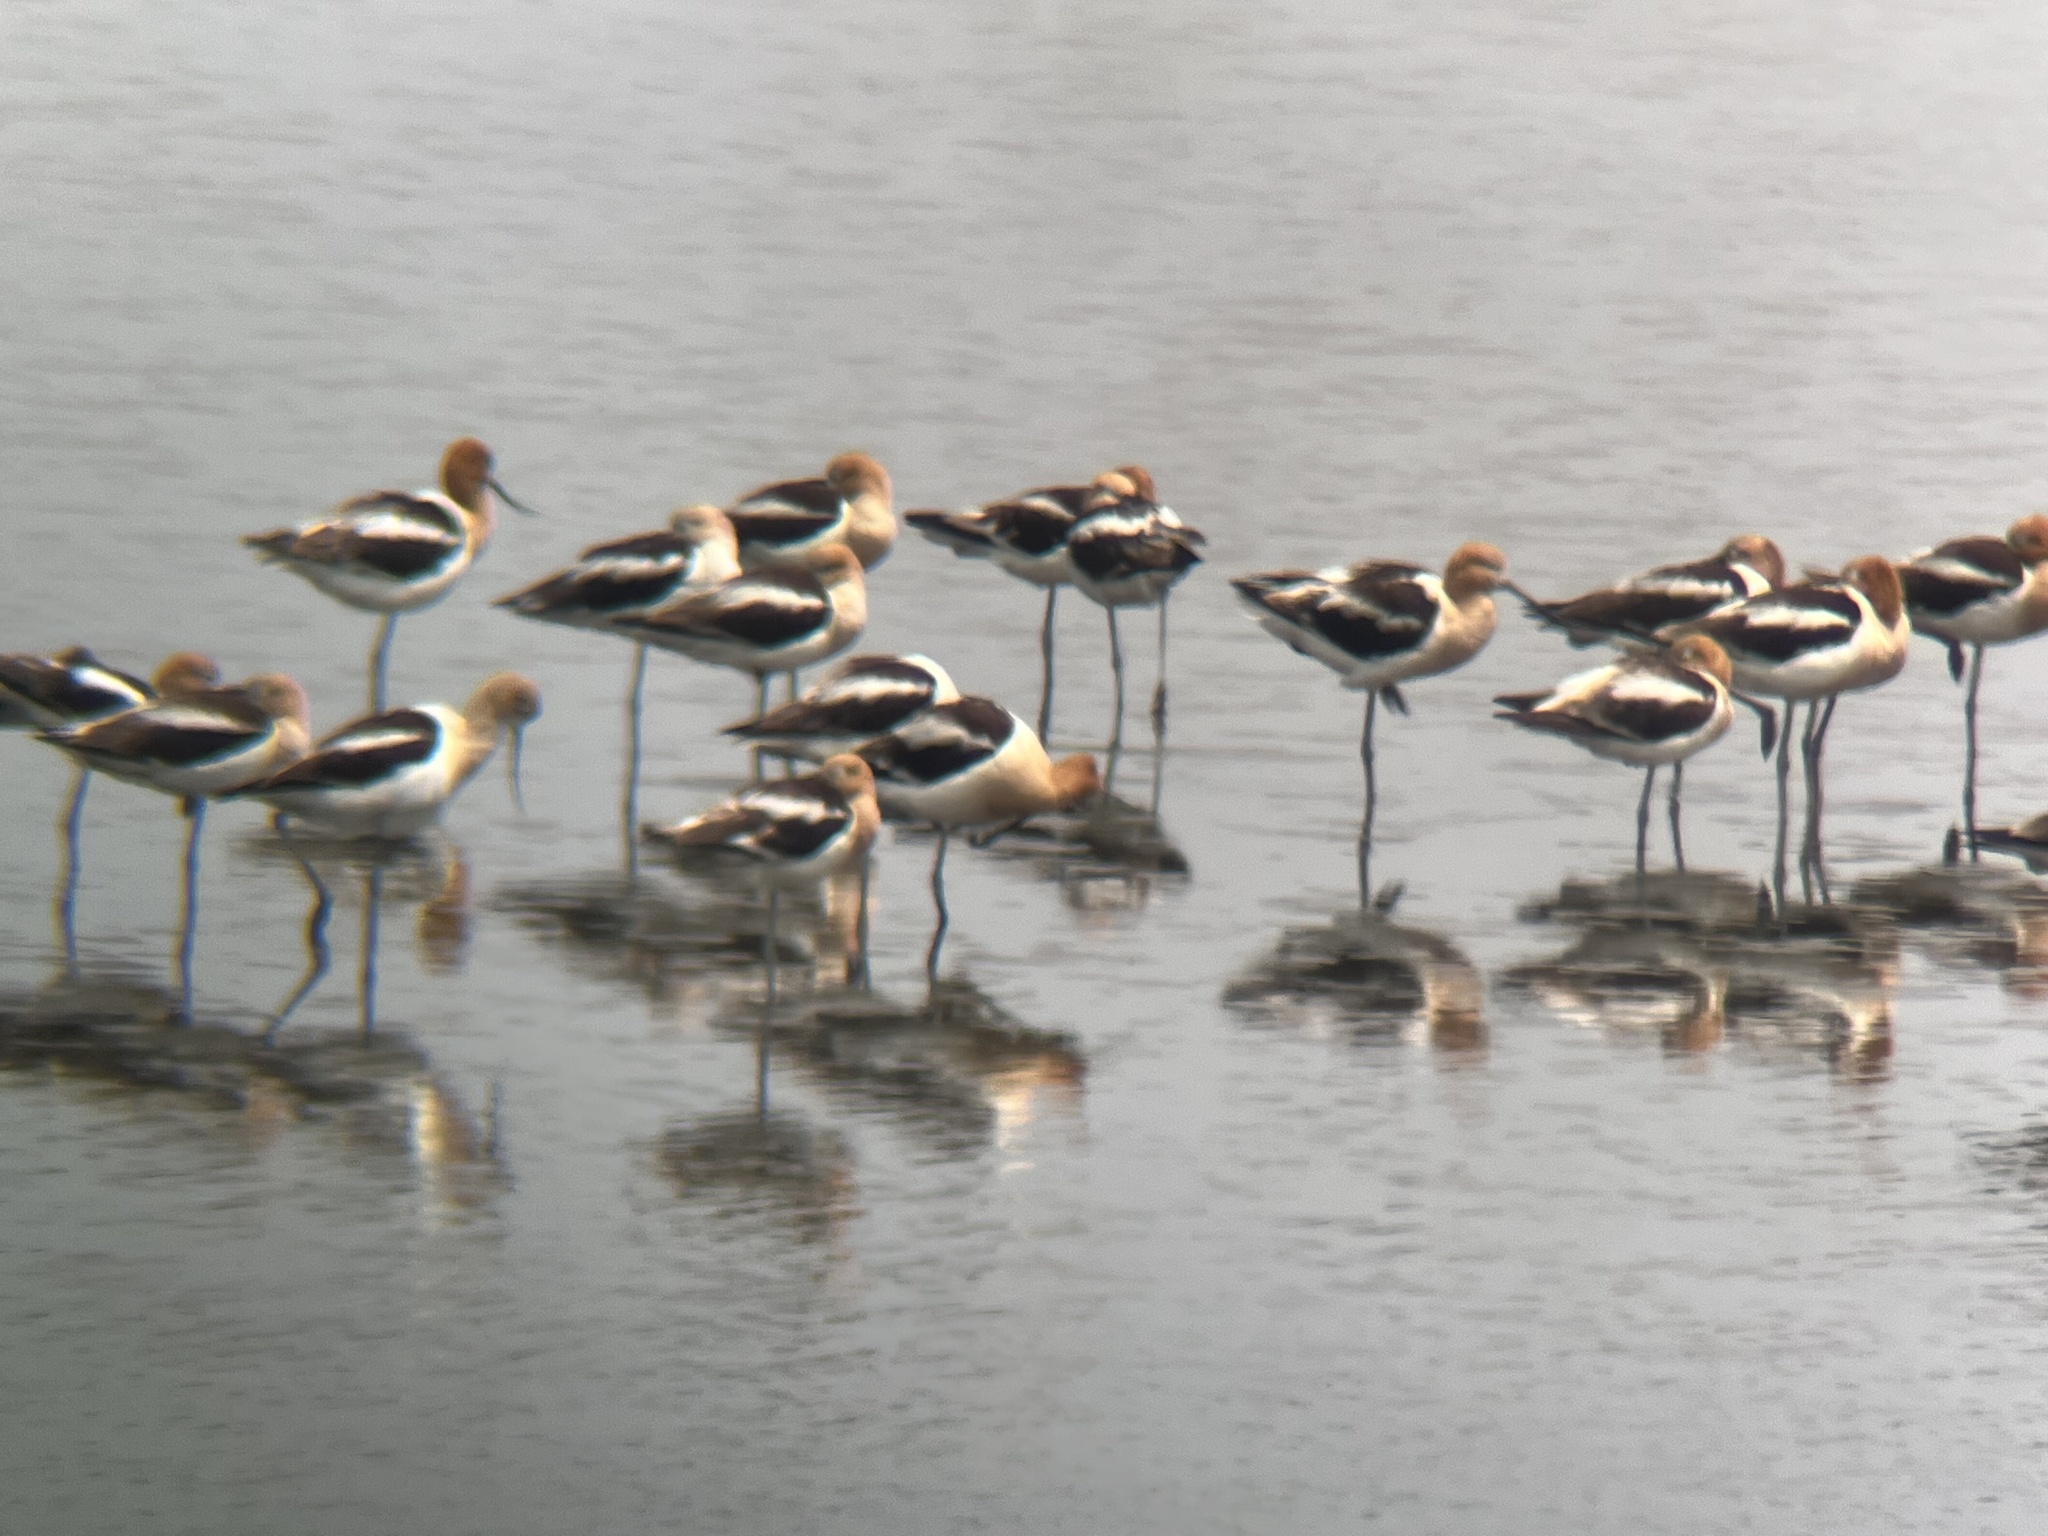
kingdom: Animalia
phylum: Chordata
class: Aves
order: Charadriiformes
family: Recurvirostridae
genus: Recurvirostra
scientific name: Recurvirostra americana
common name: American avocet
